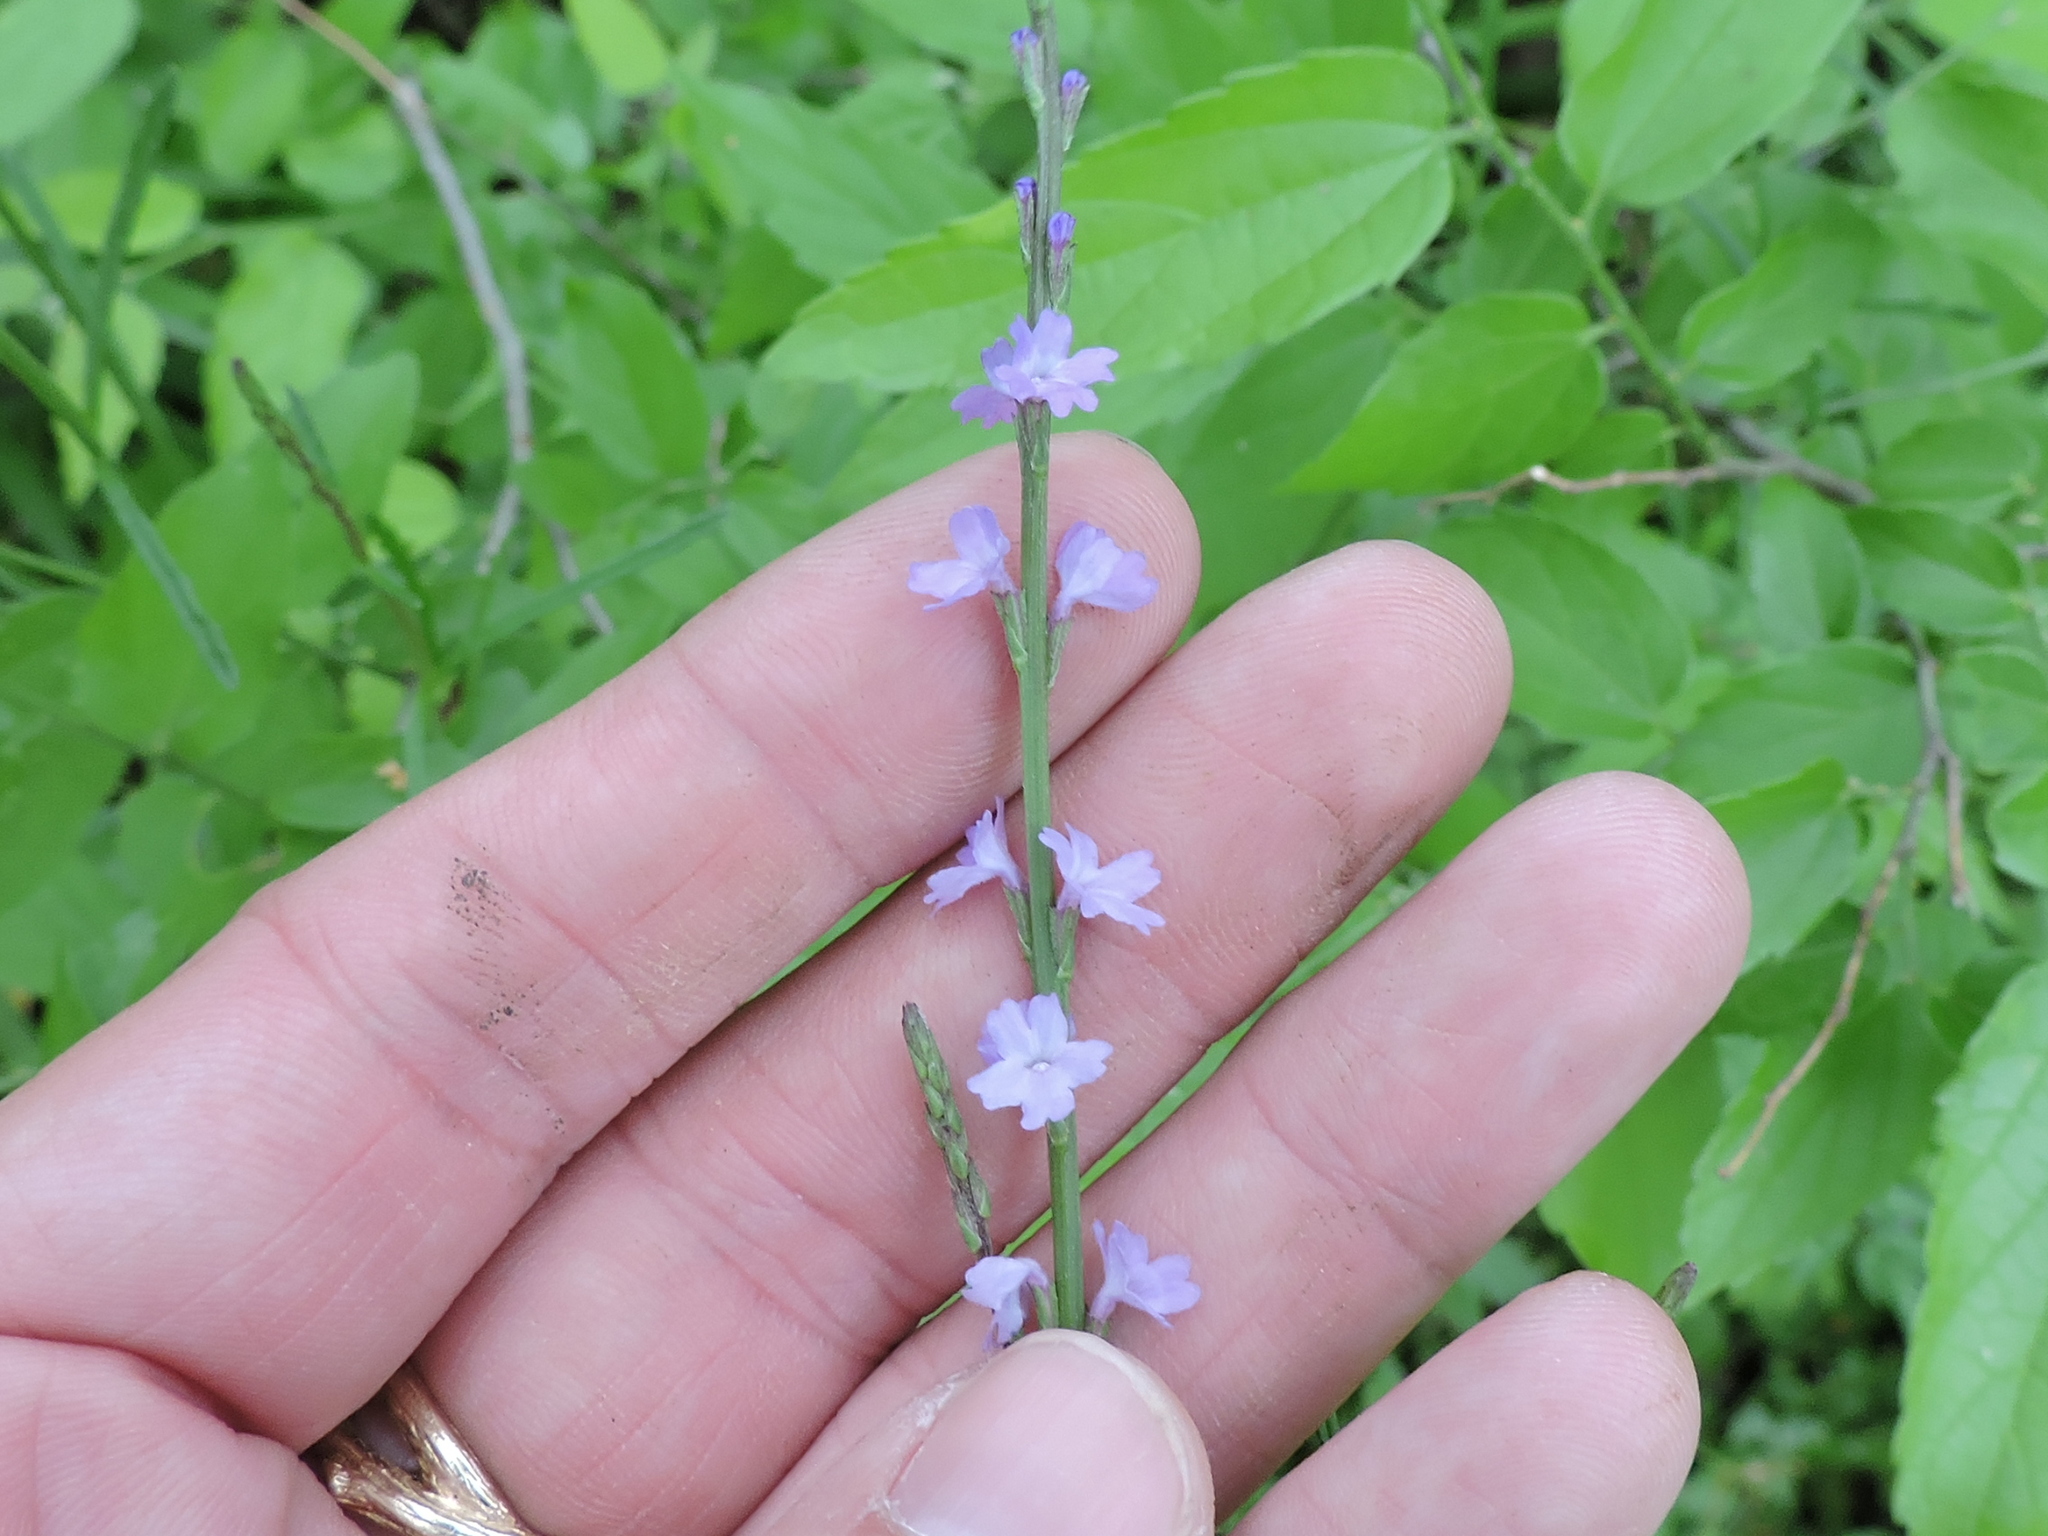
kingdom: Plantae
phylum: Tracheophyta
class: Magnoliopsida
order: Lamiales
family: Verbenaceae
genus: Verbena
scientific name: Verbena halei
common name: Texas vervain
